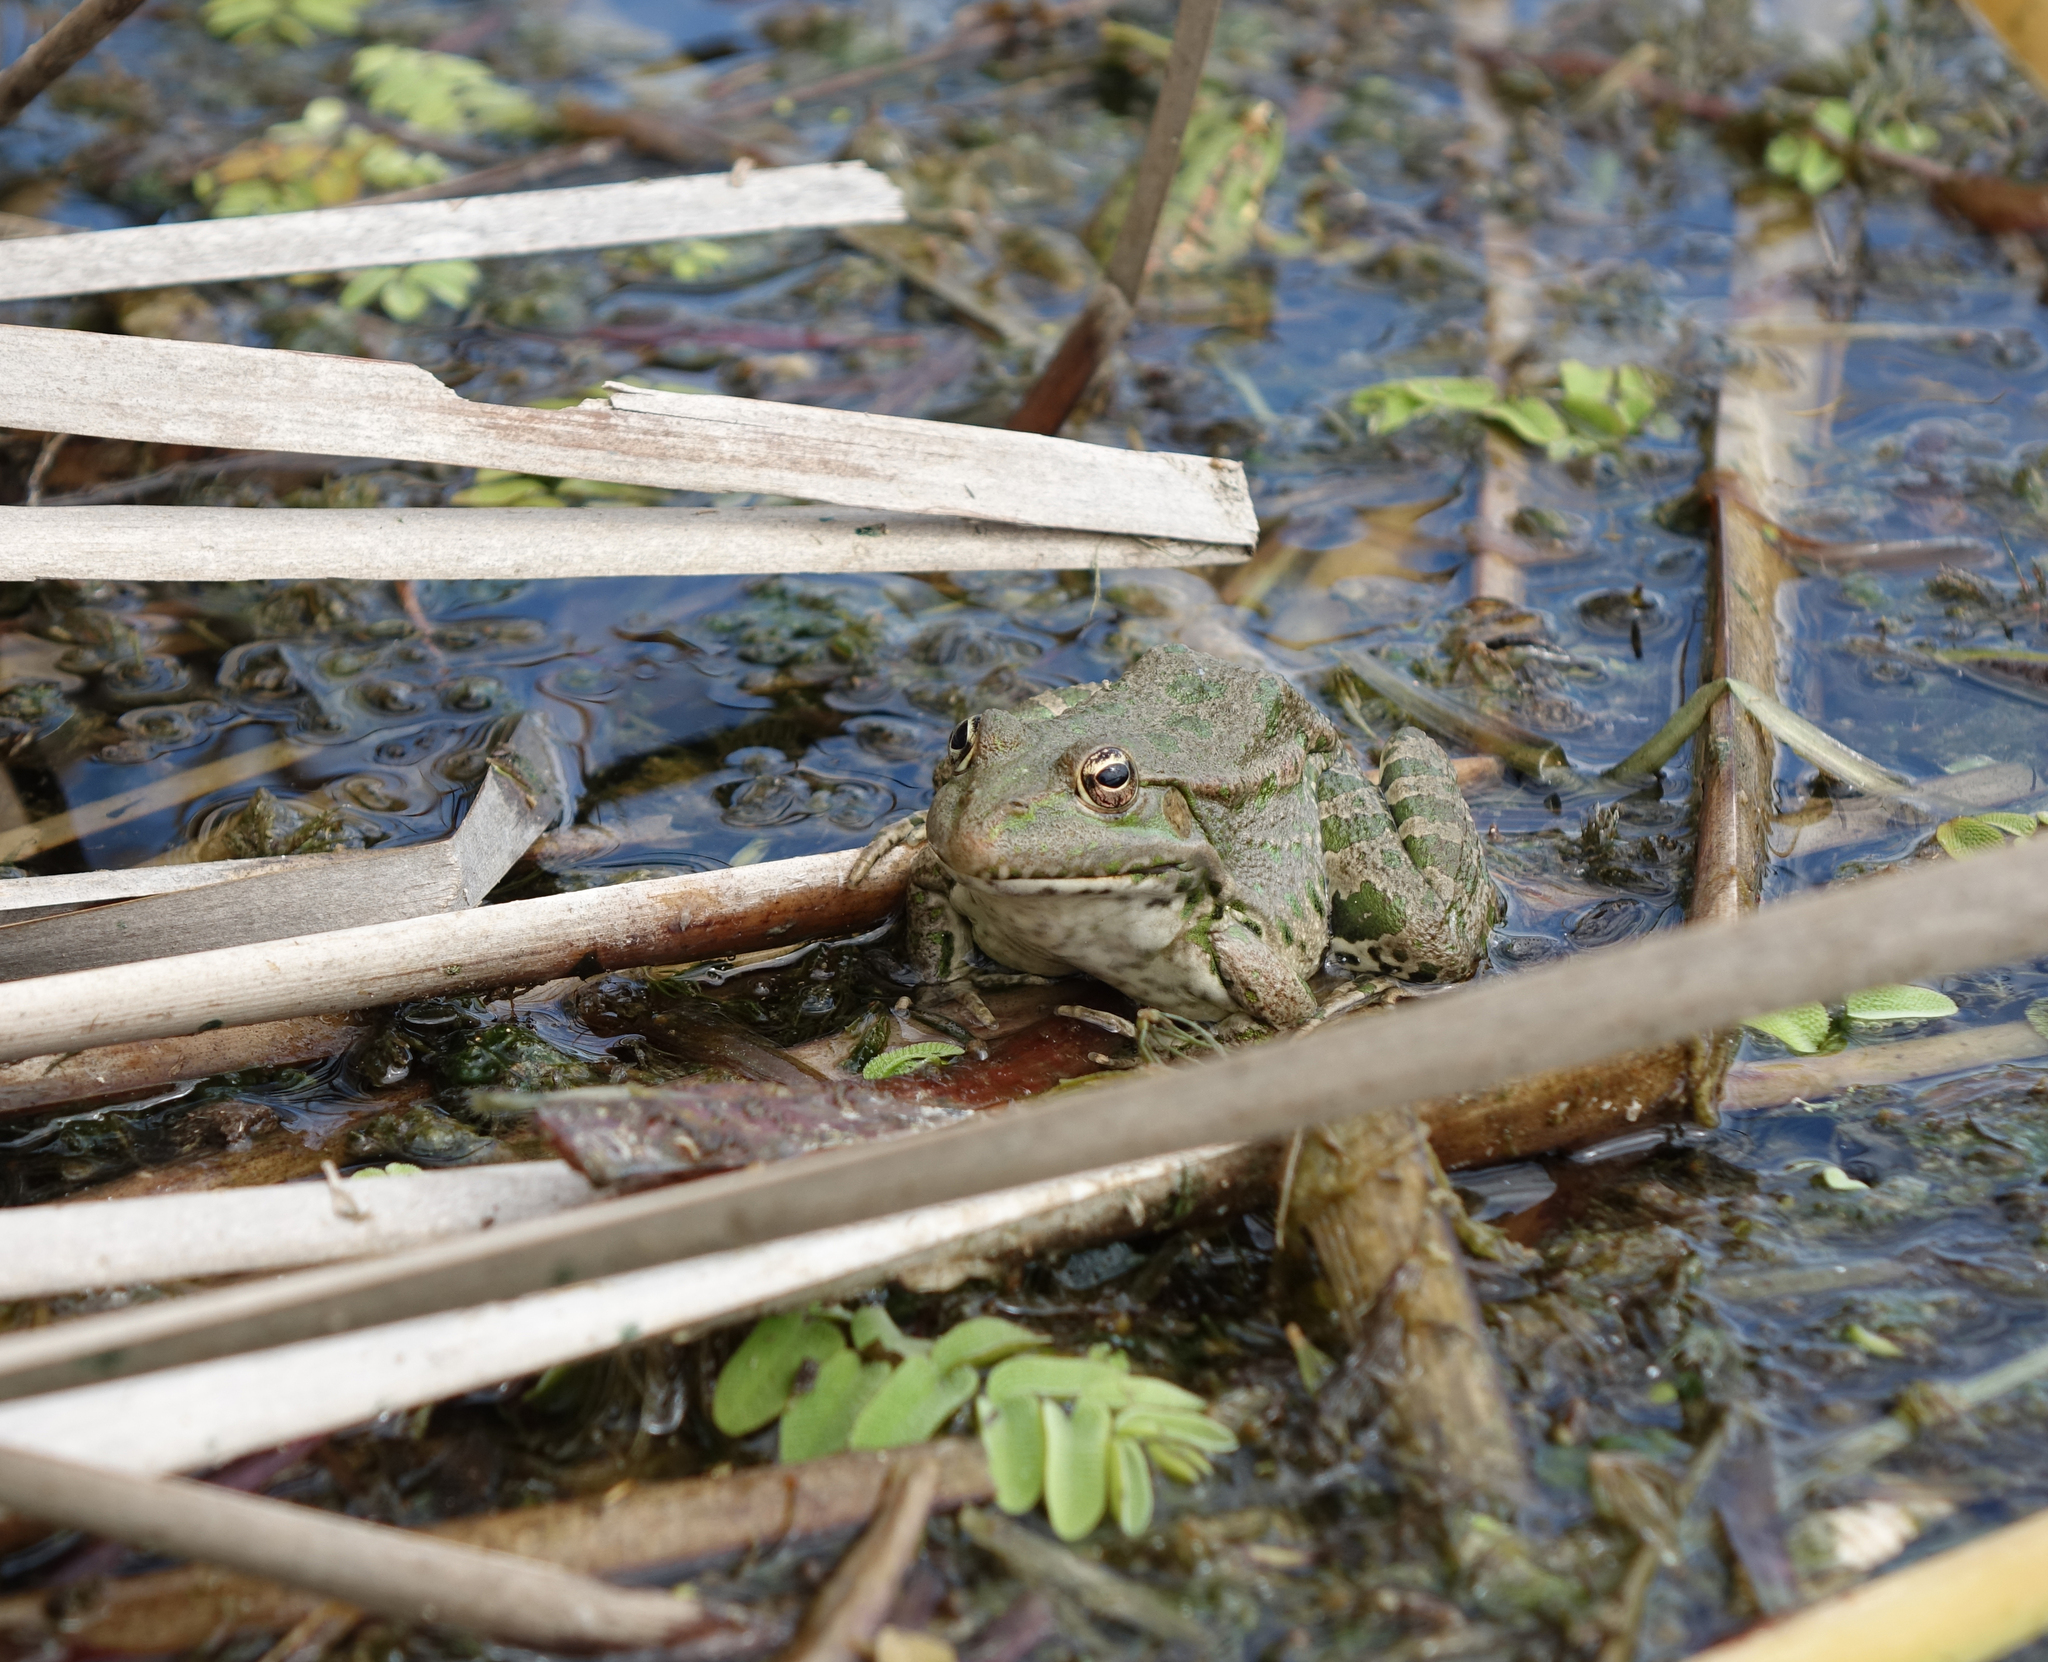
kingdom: Animalia
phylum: Chordata
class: Amphibia
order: Anura
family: Ranidae
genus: Pelophylax
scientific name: Pelophylax ridibundus
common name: Marsh frog
